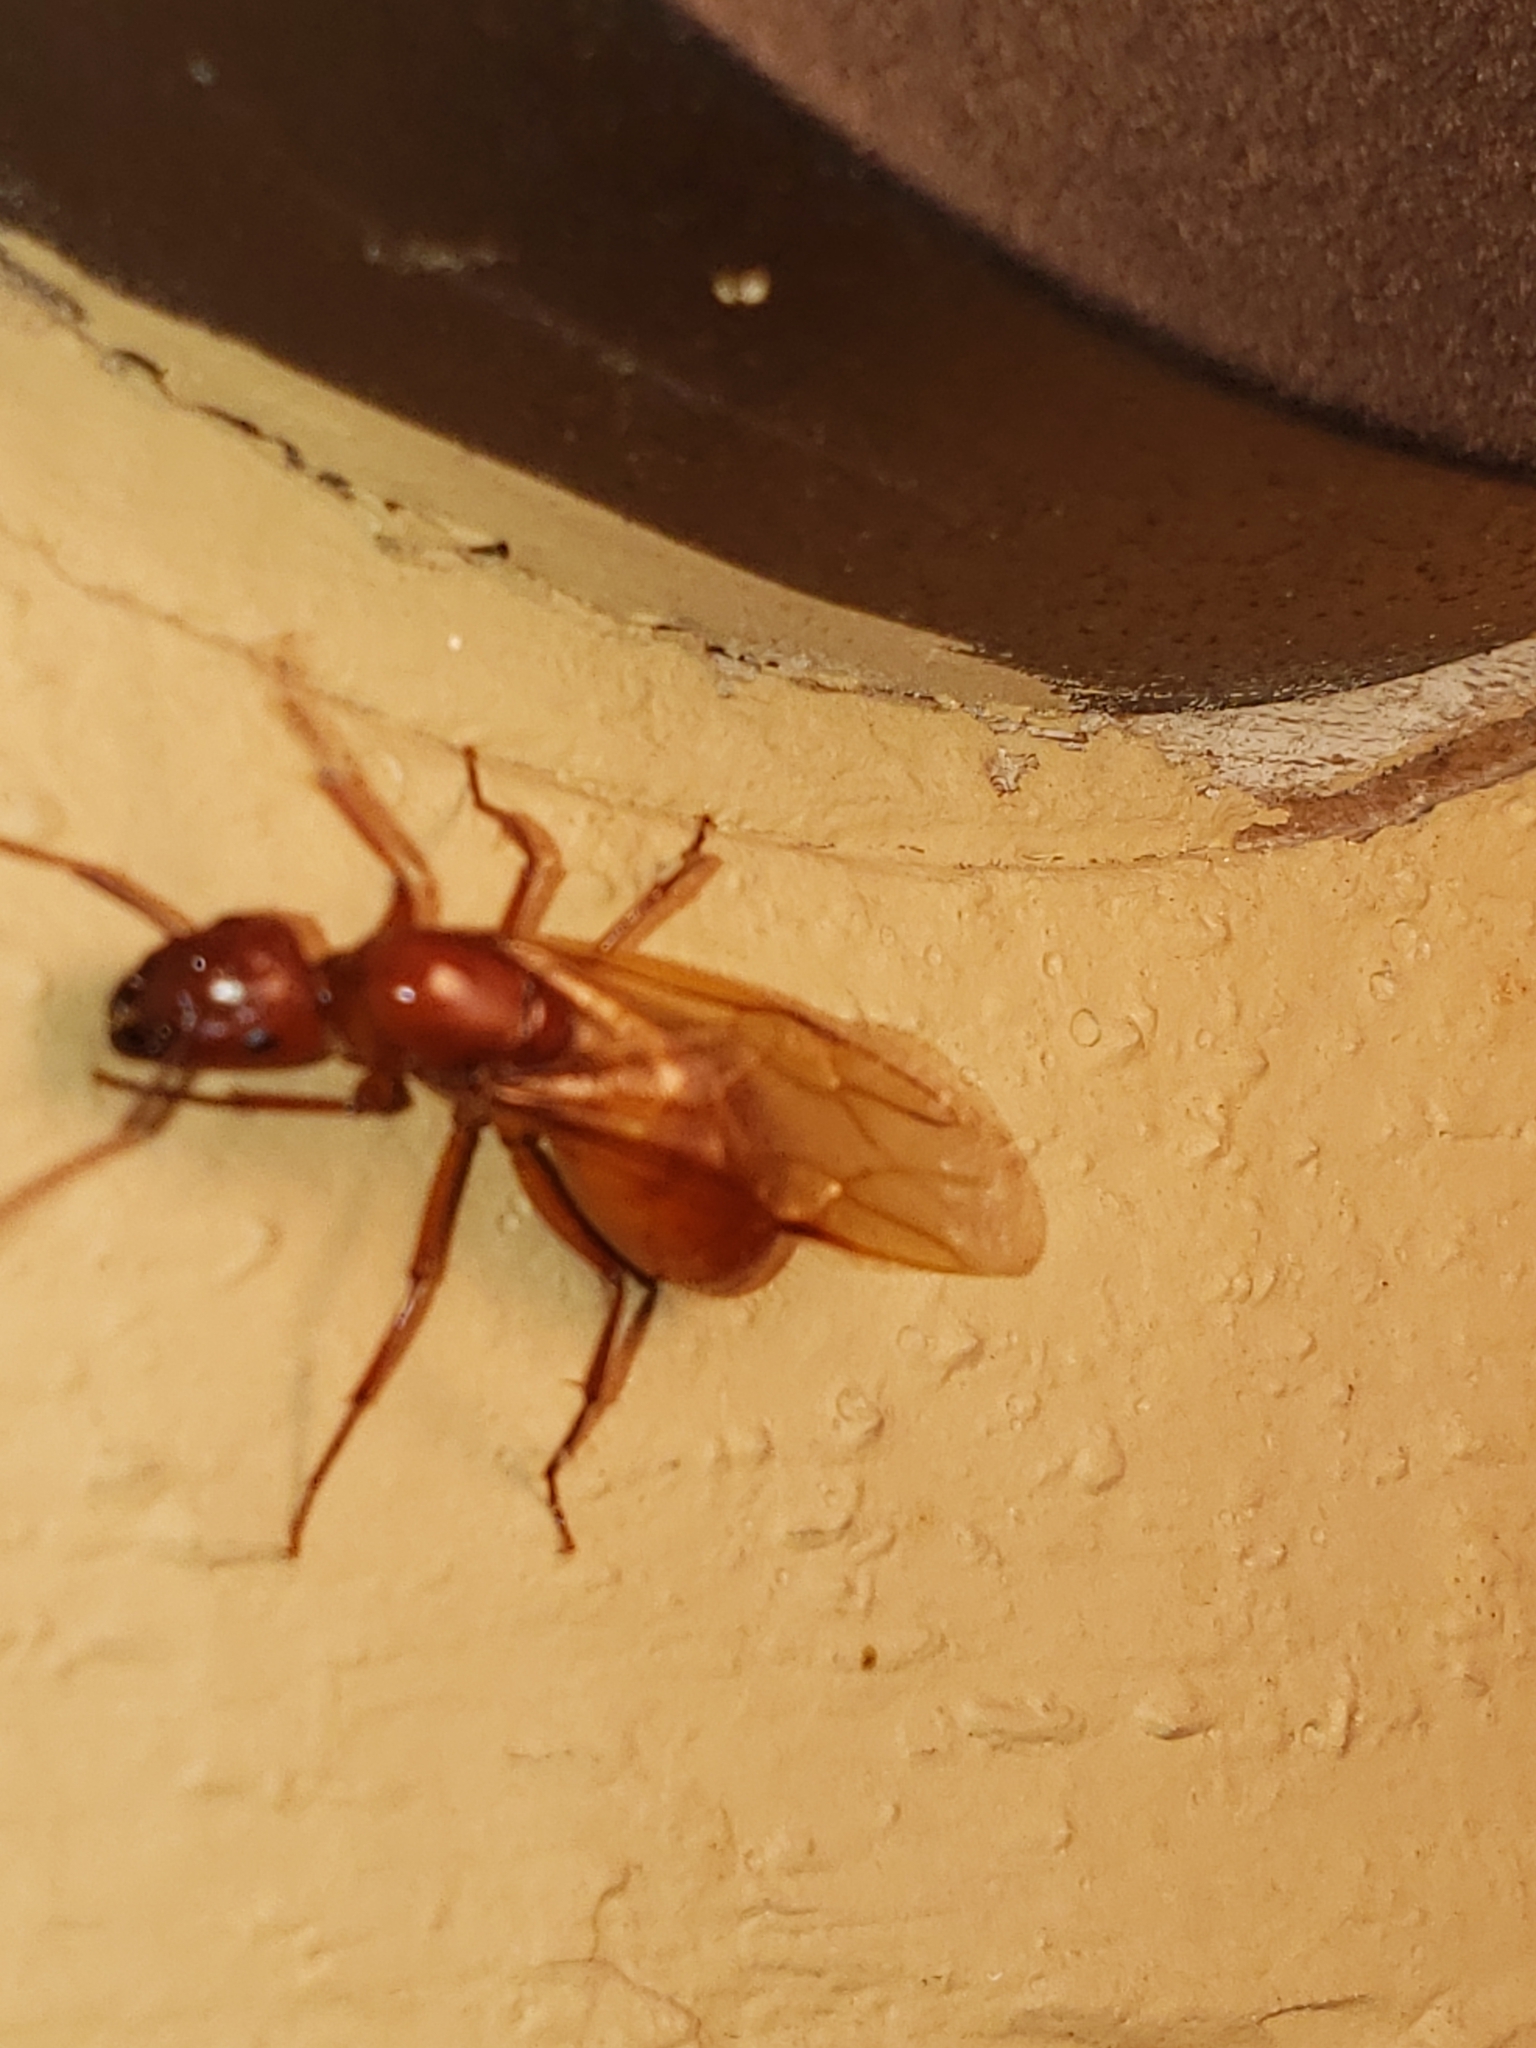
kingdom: Animalia
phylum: Arthropoda
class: Insecta
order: Hymenoptera
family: Formicidae
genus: Camponotus
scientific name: Camponotus castaneus
